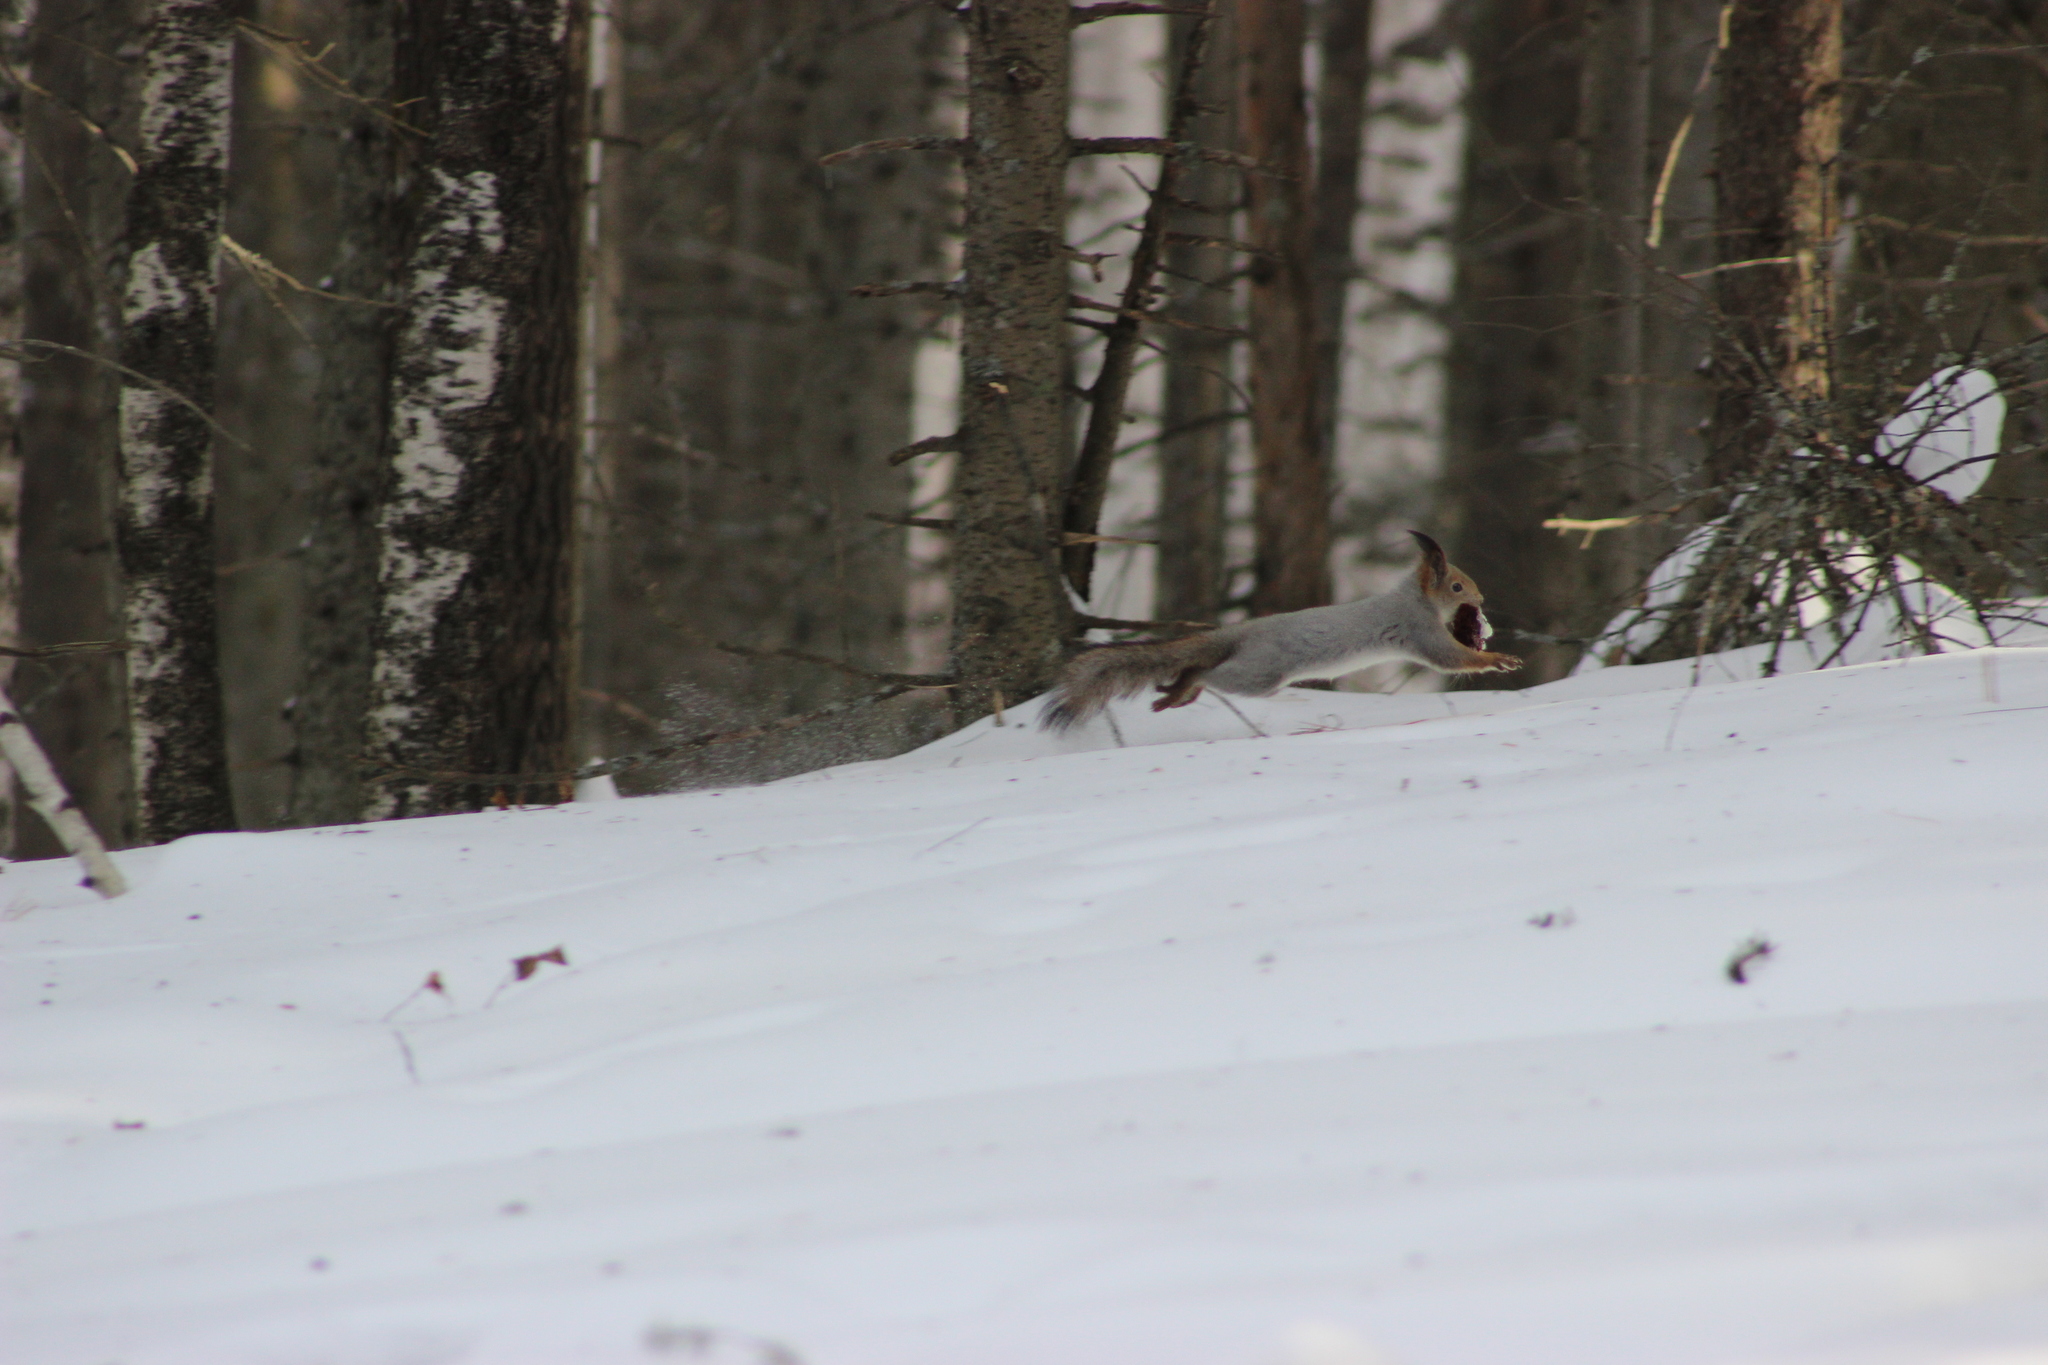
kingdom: Animalia
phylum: Chordata
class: Mammalia
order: Rodentia
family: Sciuridae
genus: Sciurus
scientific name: Sciurus vulgaris
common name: Eurasian red squirrel
